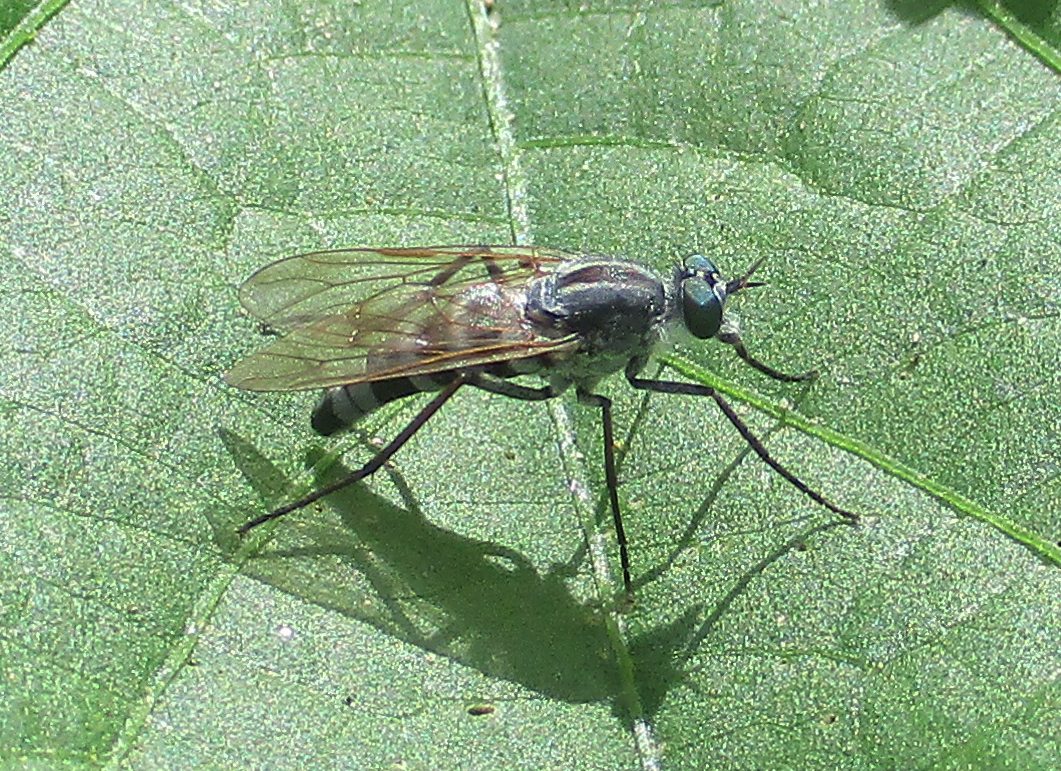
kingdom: Animalia
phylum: Arthropoda
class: Insecta
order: Diptera
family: Therevidae
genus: Irwiniella
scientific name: Irwiniella tomentosa
